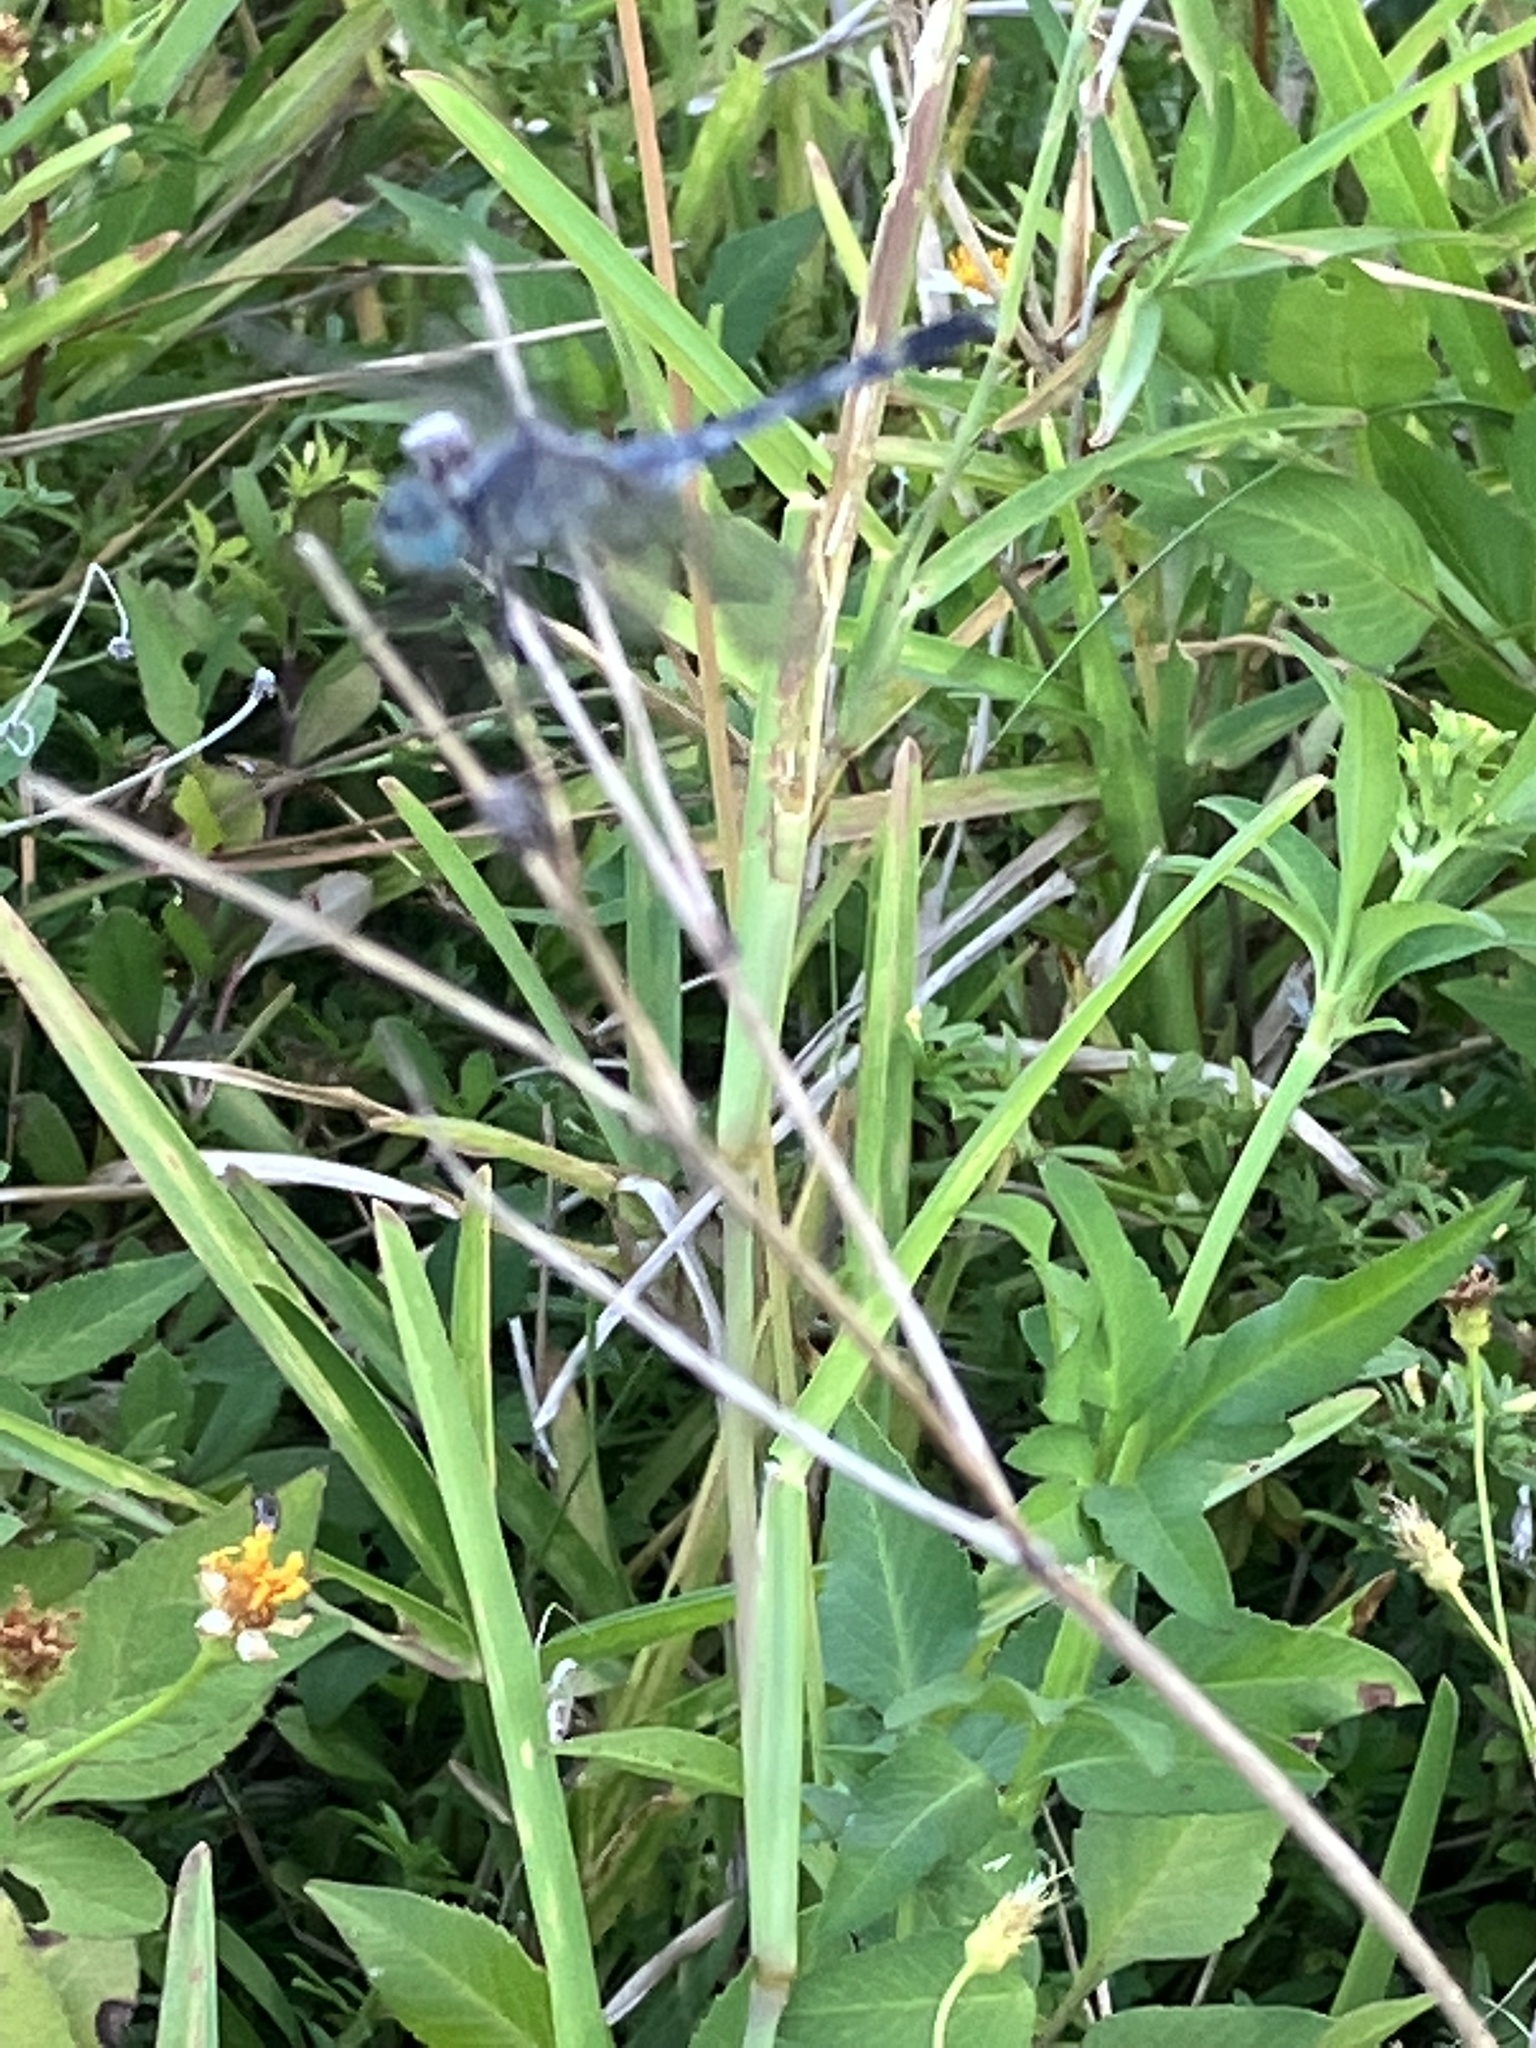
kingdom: Animalia
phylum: Arthropoda
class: Insecta
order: Odonata
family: Libellulidae
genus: Diplacodes
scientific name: Diplacodes trivialis
